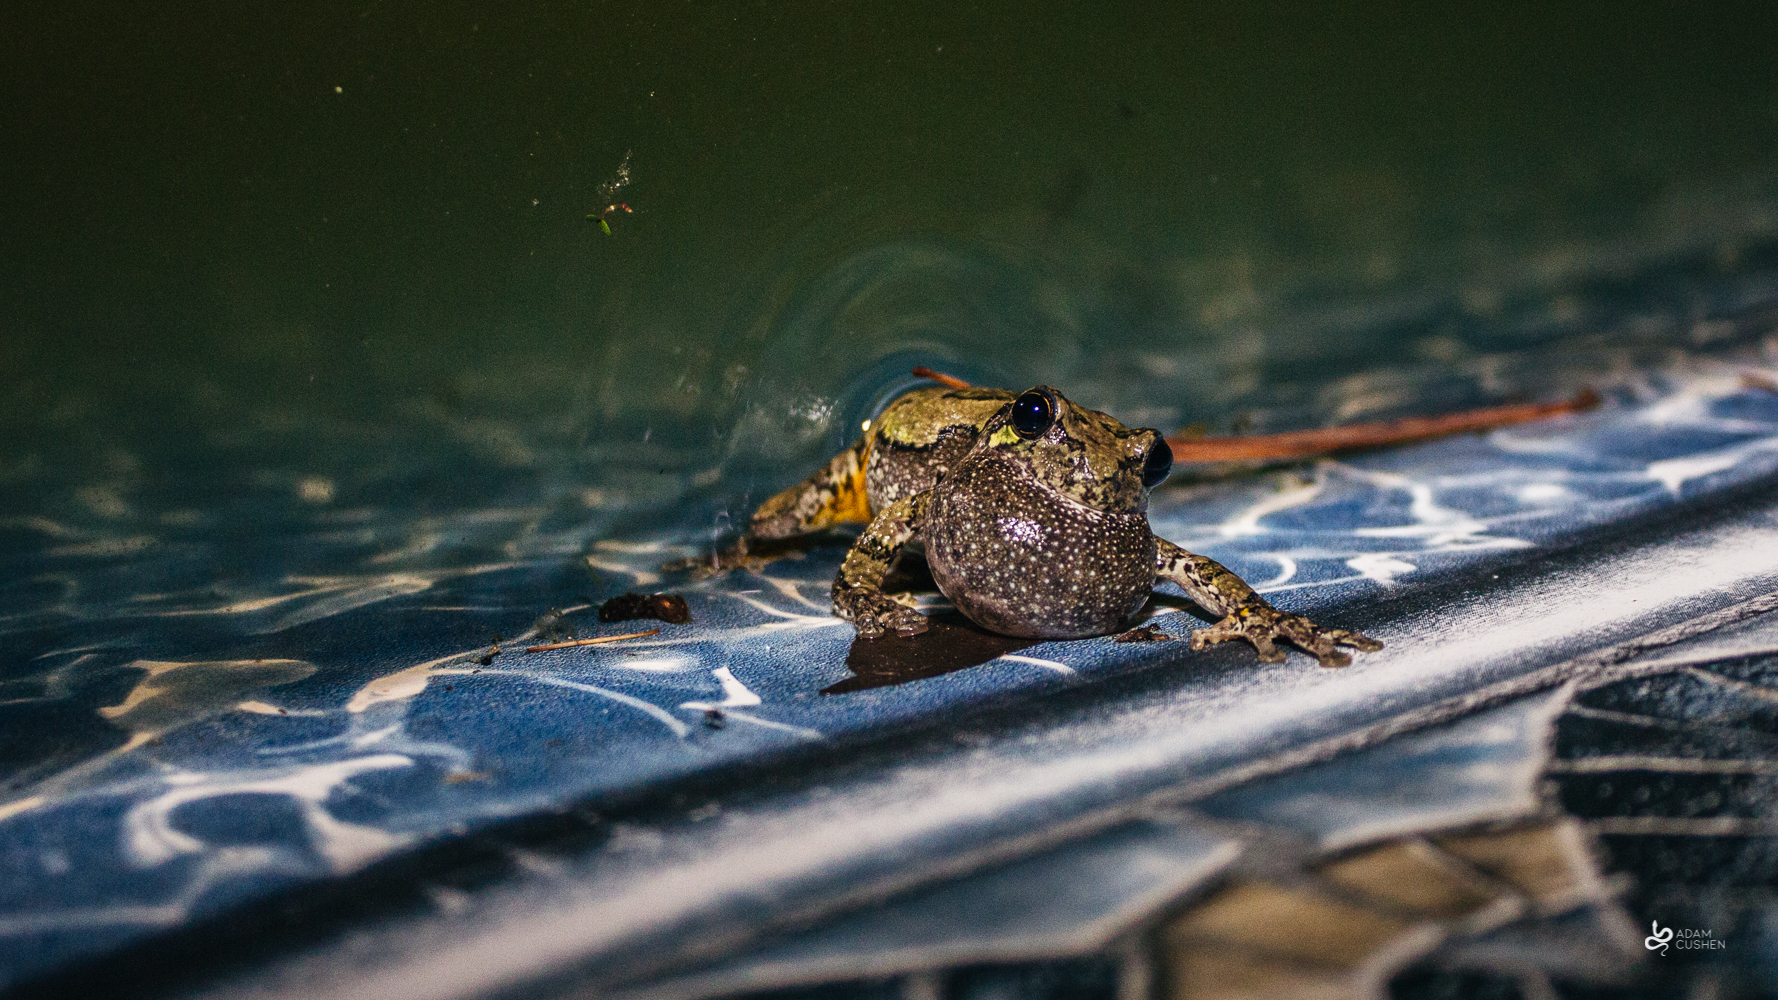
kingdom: Animalia
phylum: Chordata
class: Amphibia
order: Anura
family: Hylidae
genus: Dryophytes
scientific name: Dryophytes versicolor
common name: Gray treefrog
